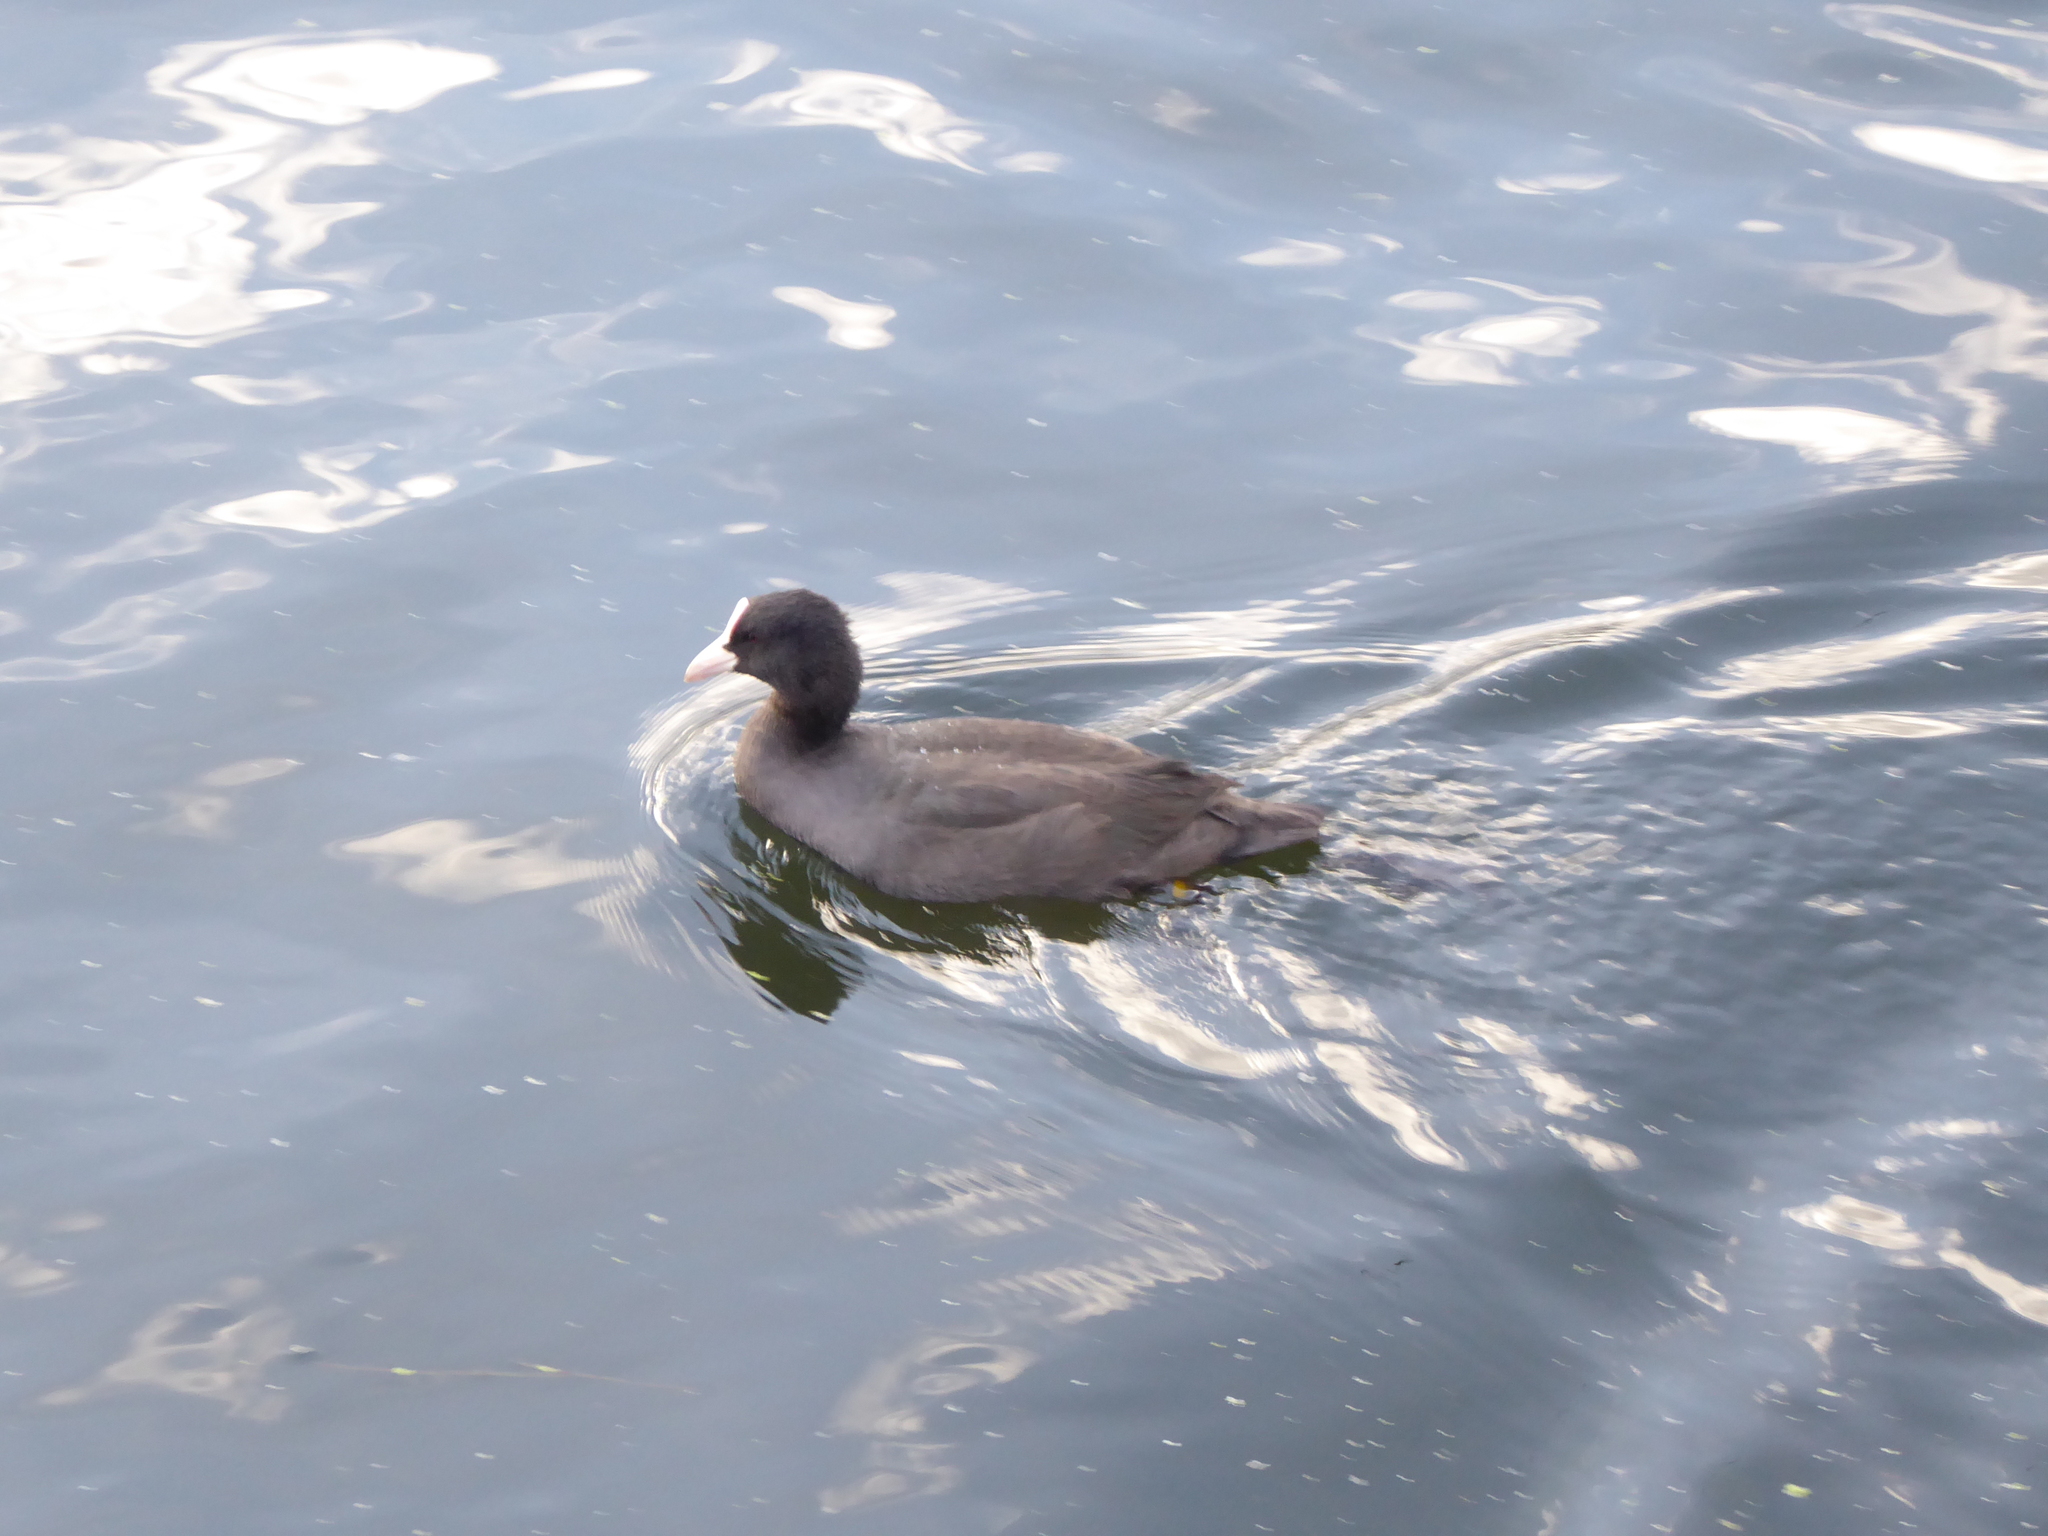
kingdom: Animalia
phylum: Chordata
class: Aves
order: Gruiformes
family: Rallidae
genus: Fulica
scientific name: Fulica atra
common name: Eurasian coot
